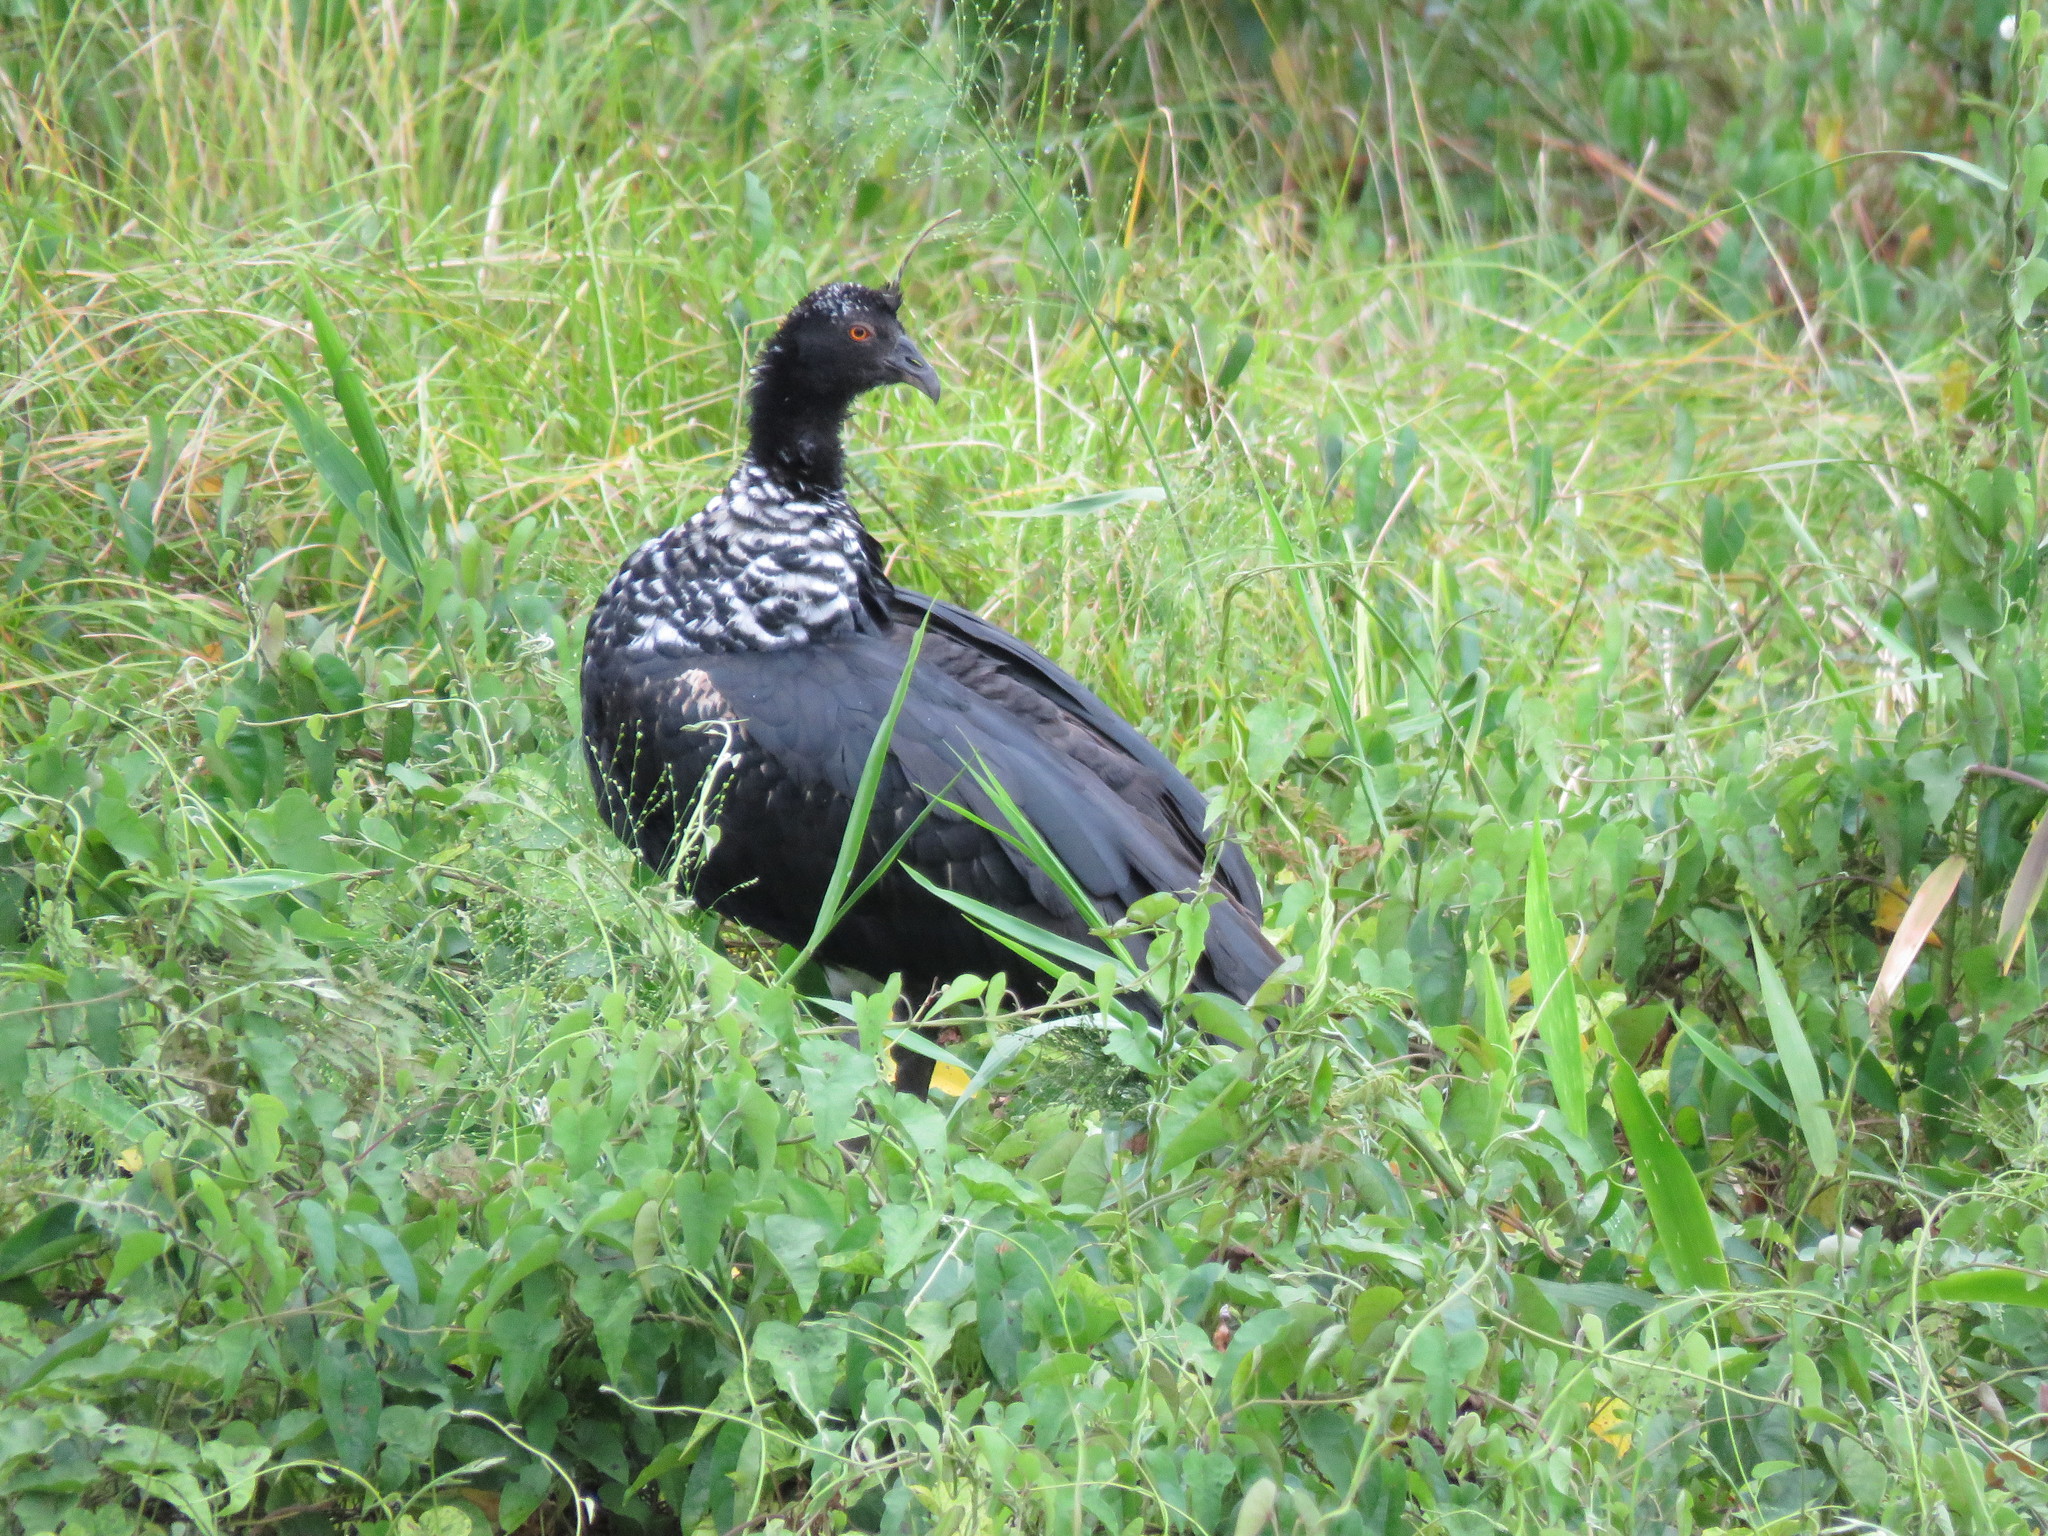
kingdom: Animalia
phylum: Chordata
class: Aves
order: Anseriformes
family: Anhimidae
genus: Anhima
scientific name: Anhima cornuta
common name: Horned screamer
